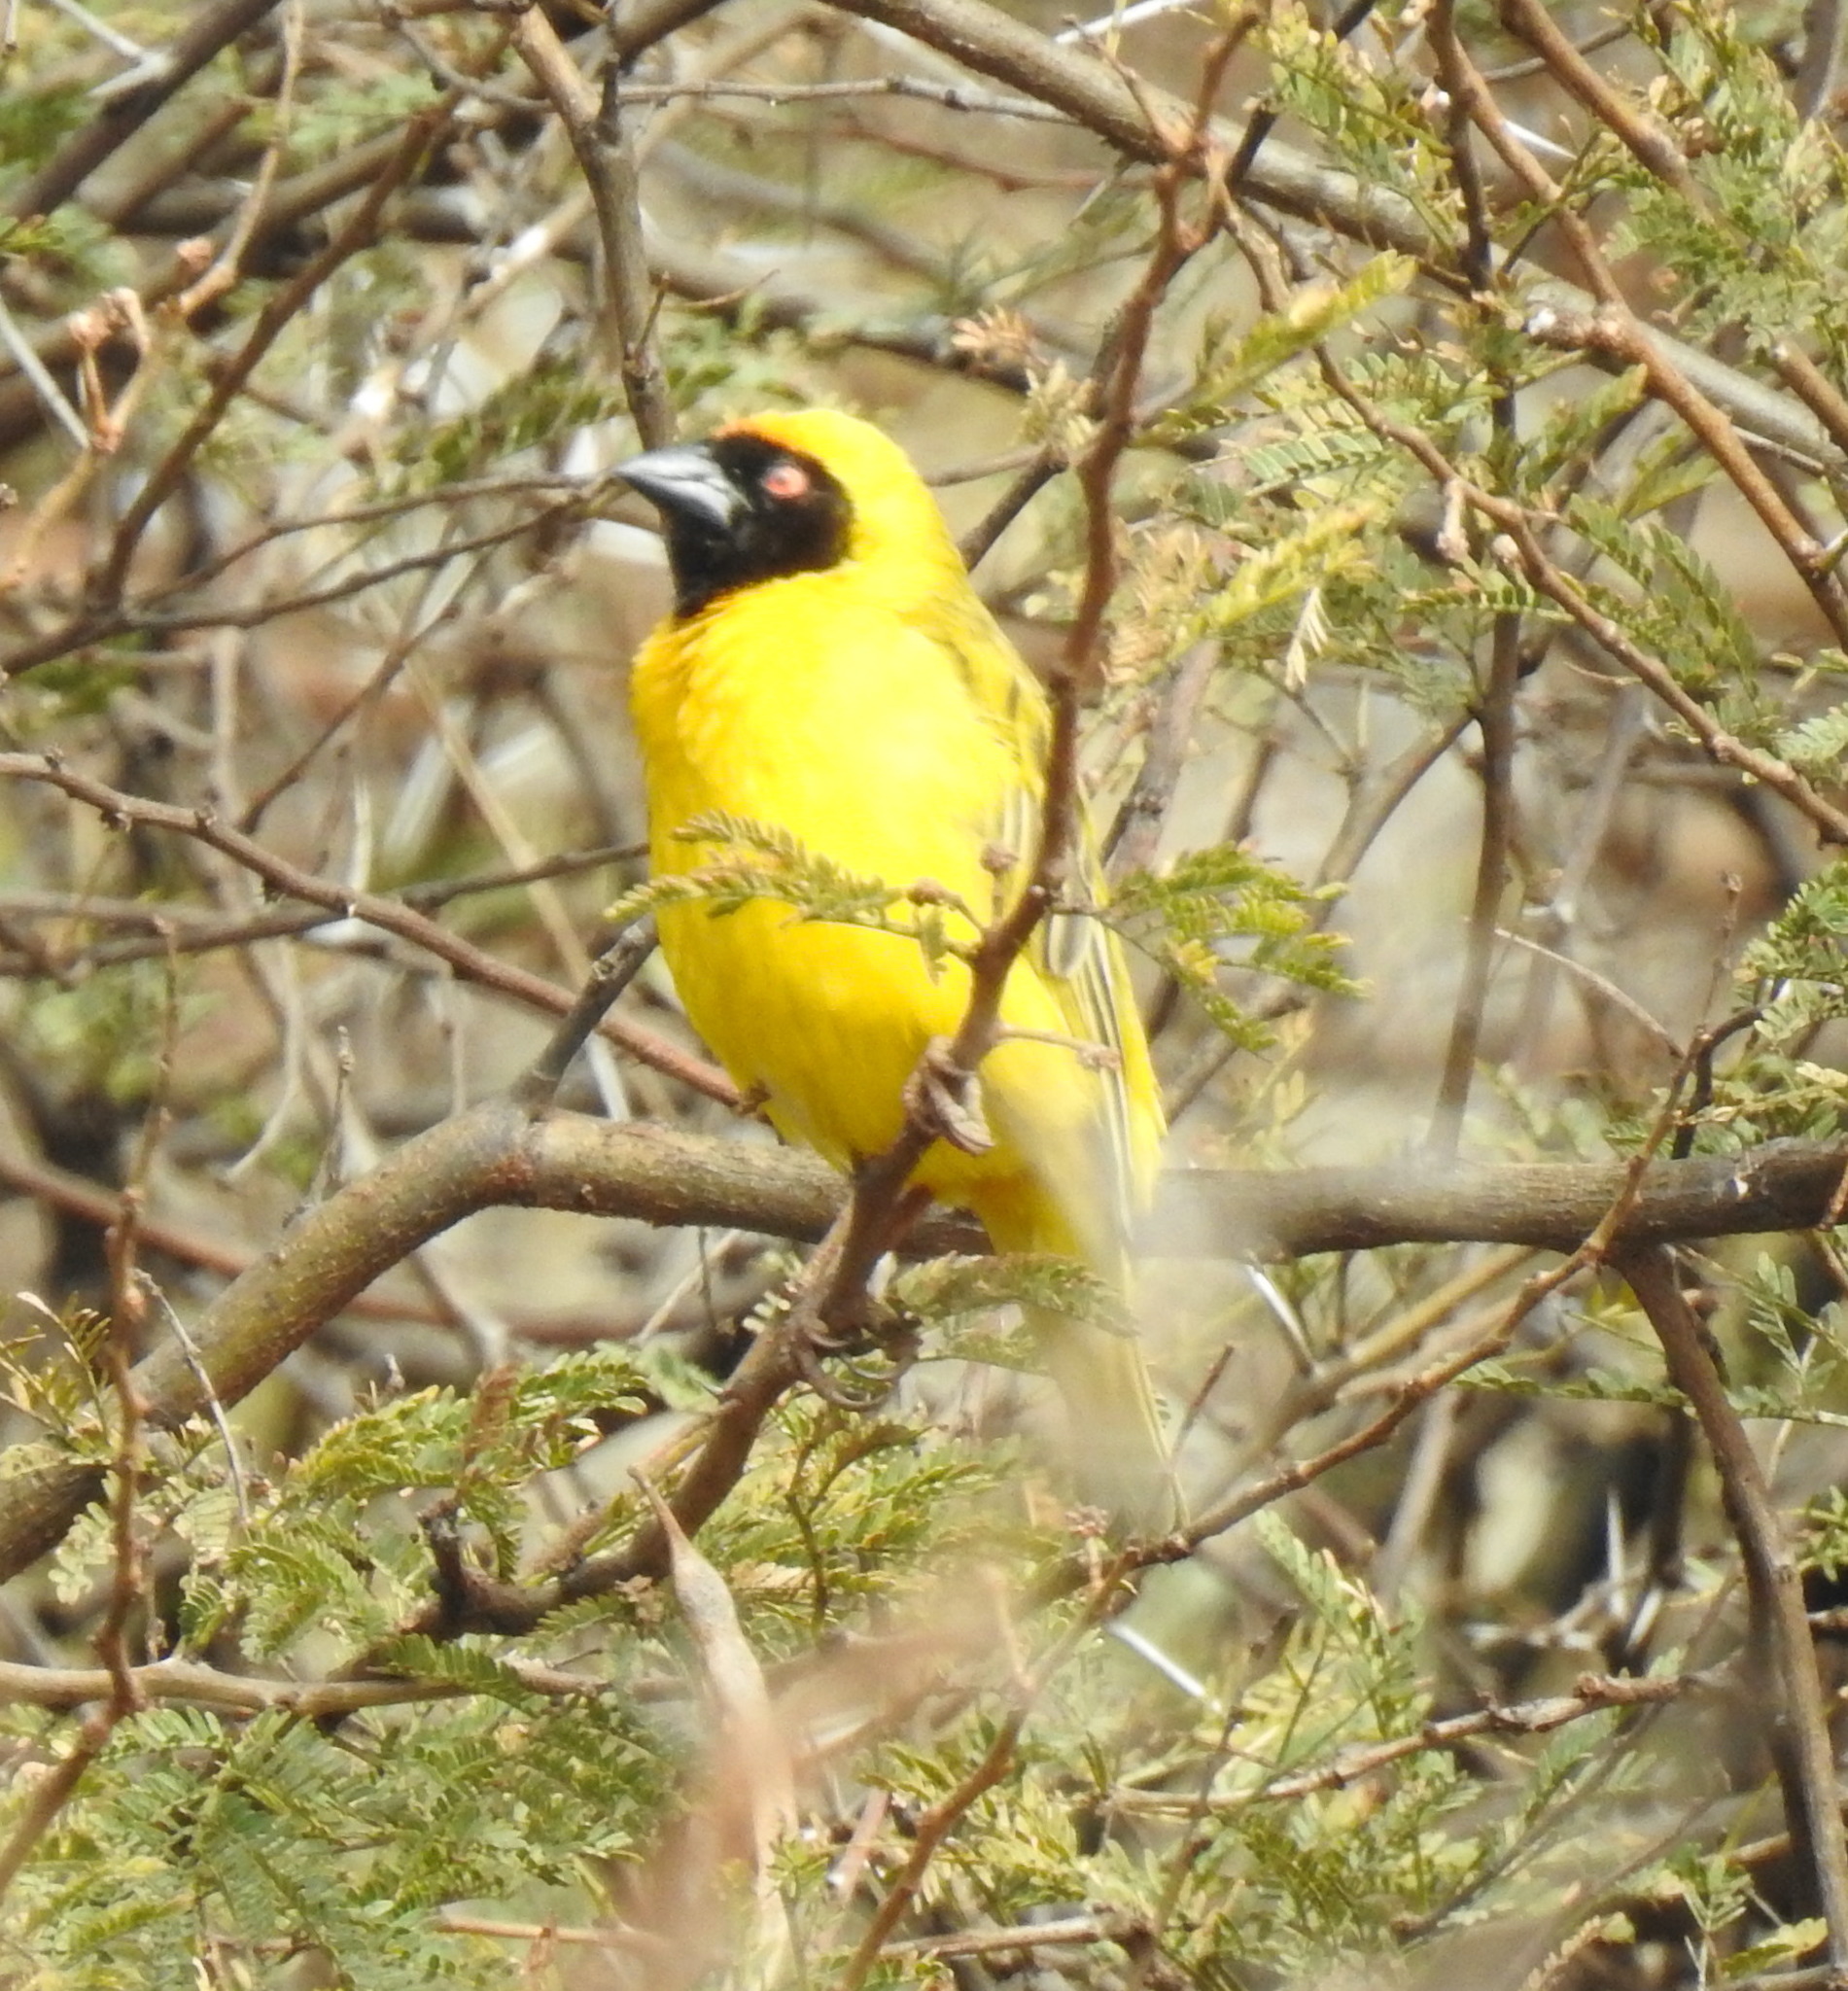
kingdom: Animalia
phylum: Chordata
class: Aves
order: Passeriformes
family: Ploceidae
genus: Ploceus
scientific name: Ploceus velatus
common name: Southern masked weaver
